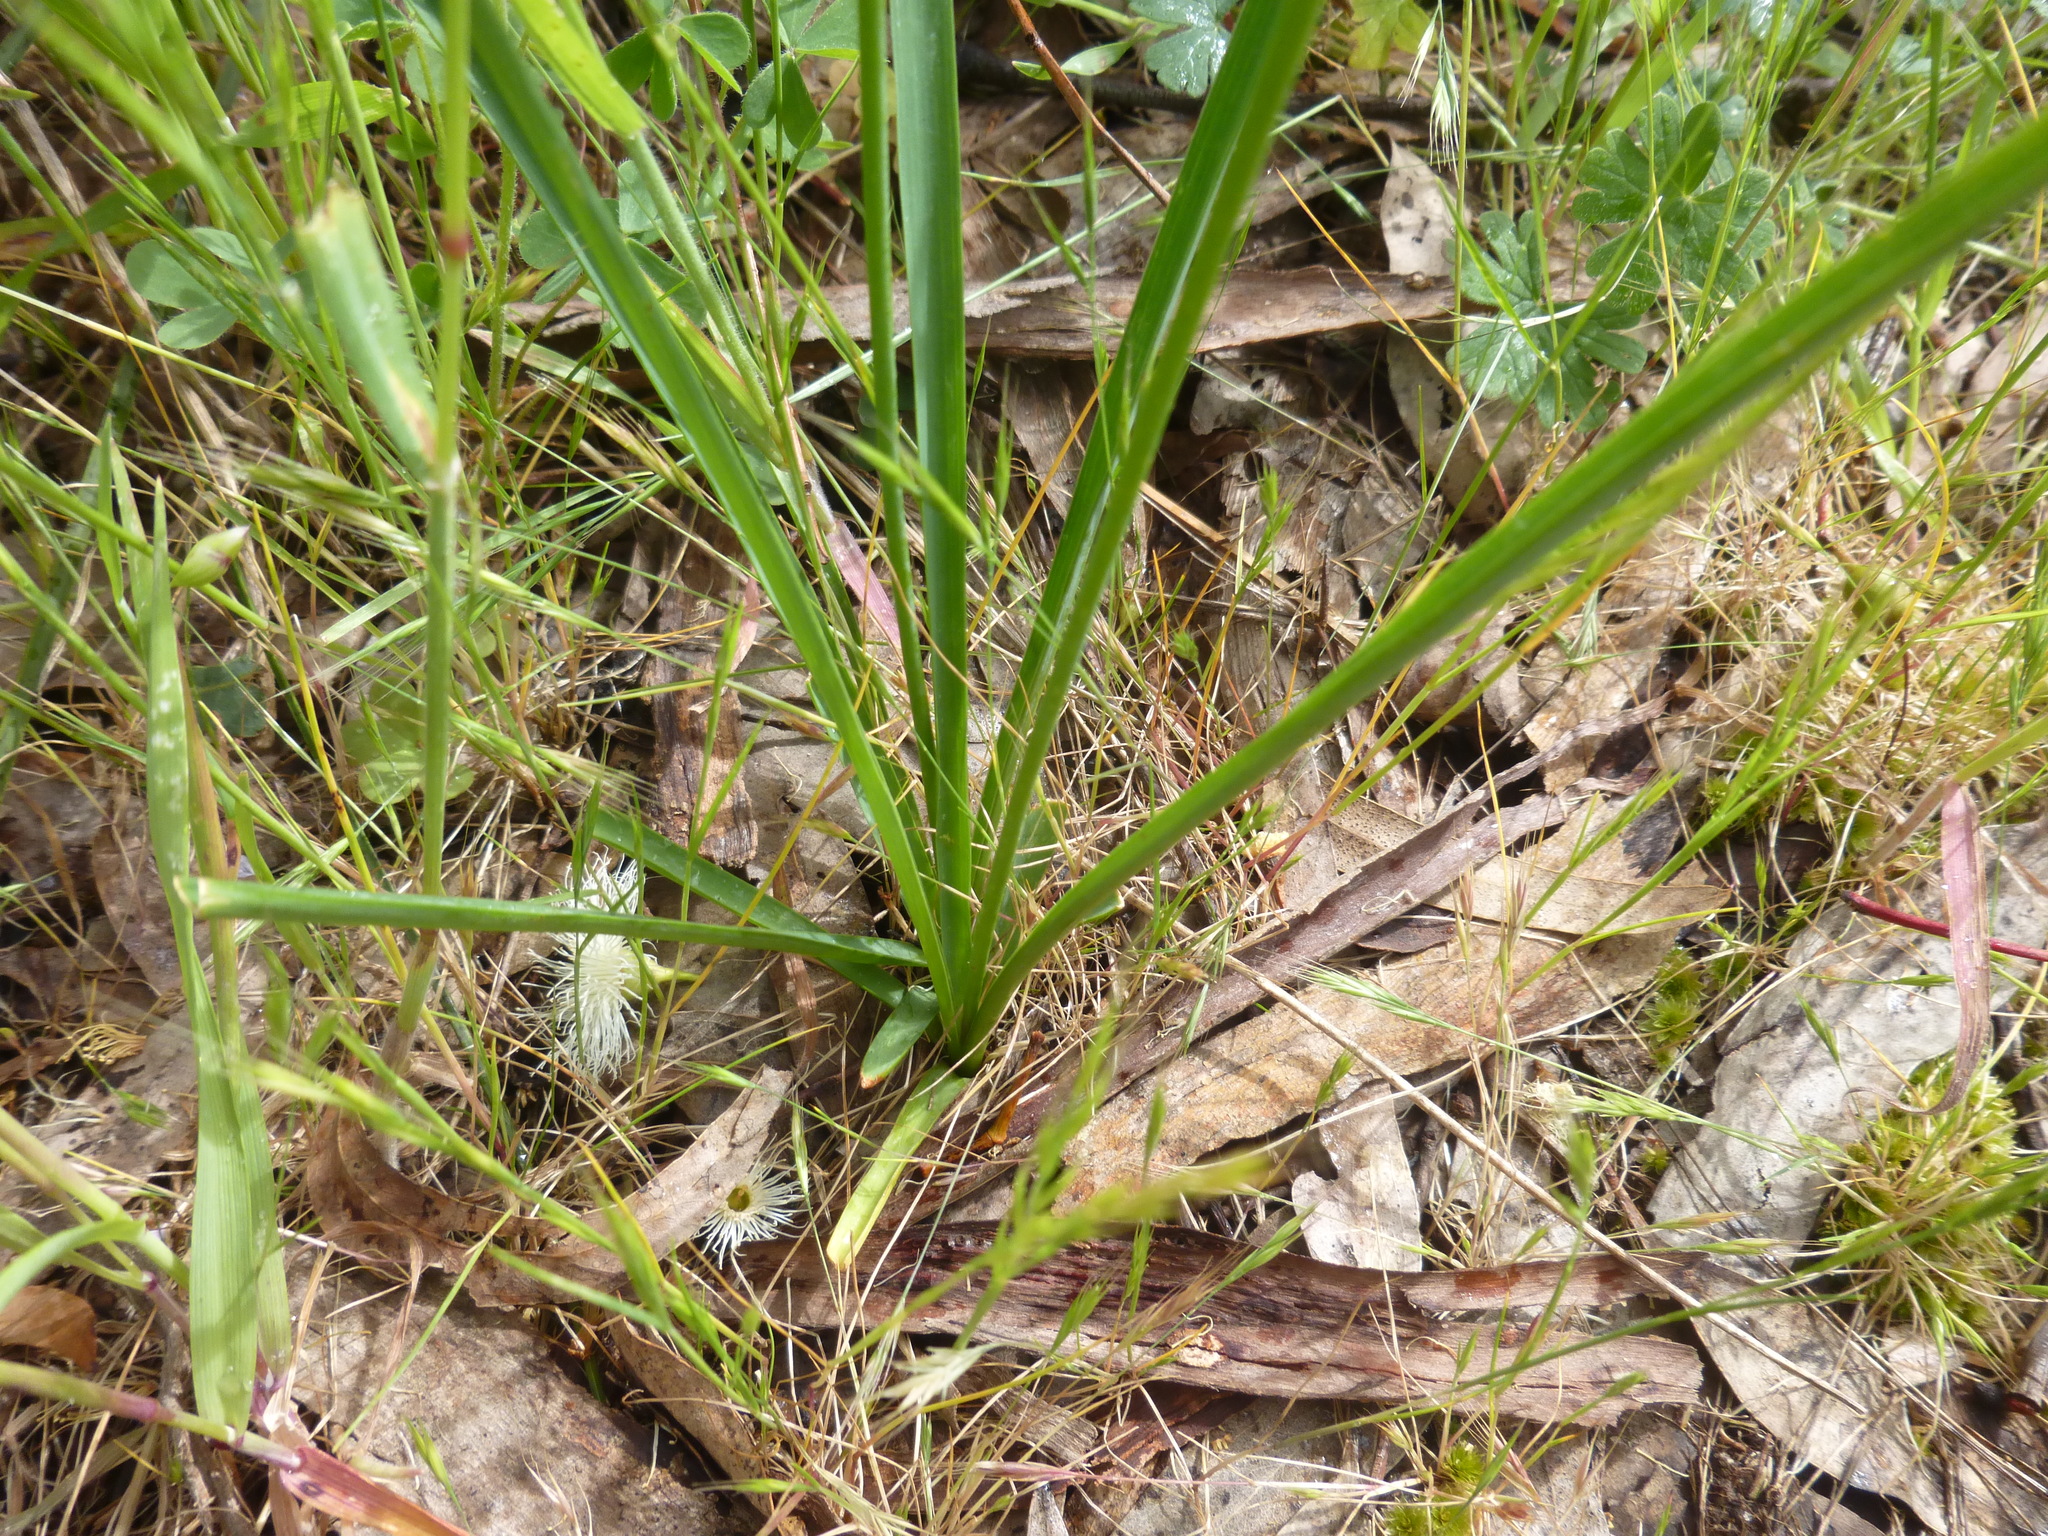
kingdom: Plantae
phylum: Tracheophyta
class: Liliopsida
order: Asparagales
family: Asparagaceae
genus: Arthropodium
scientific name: Arthropodium strictum
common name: Chocolate-lily
